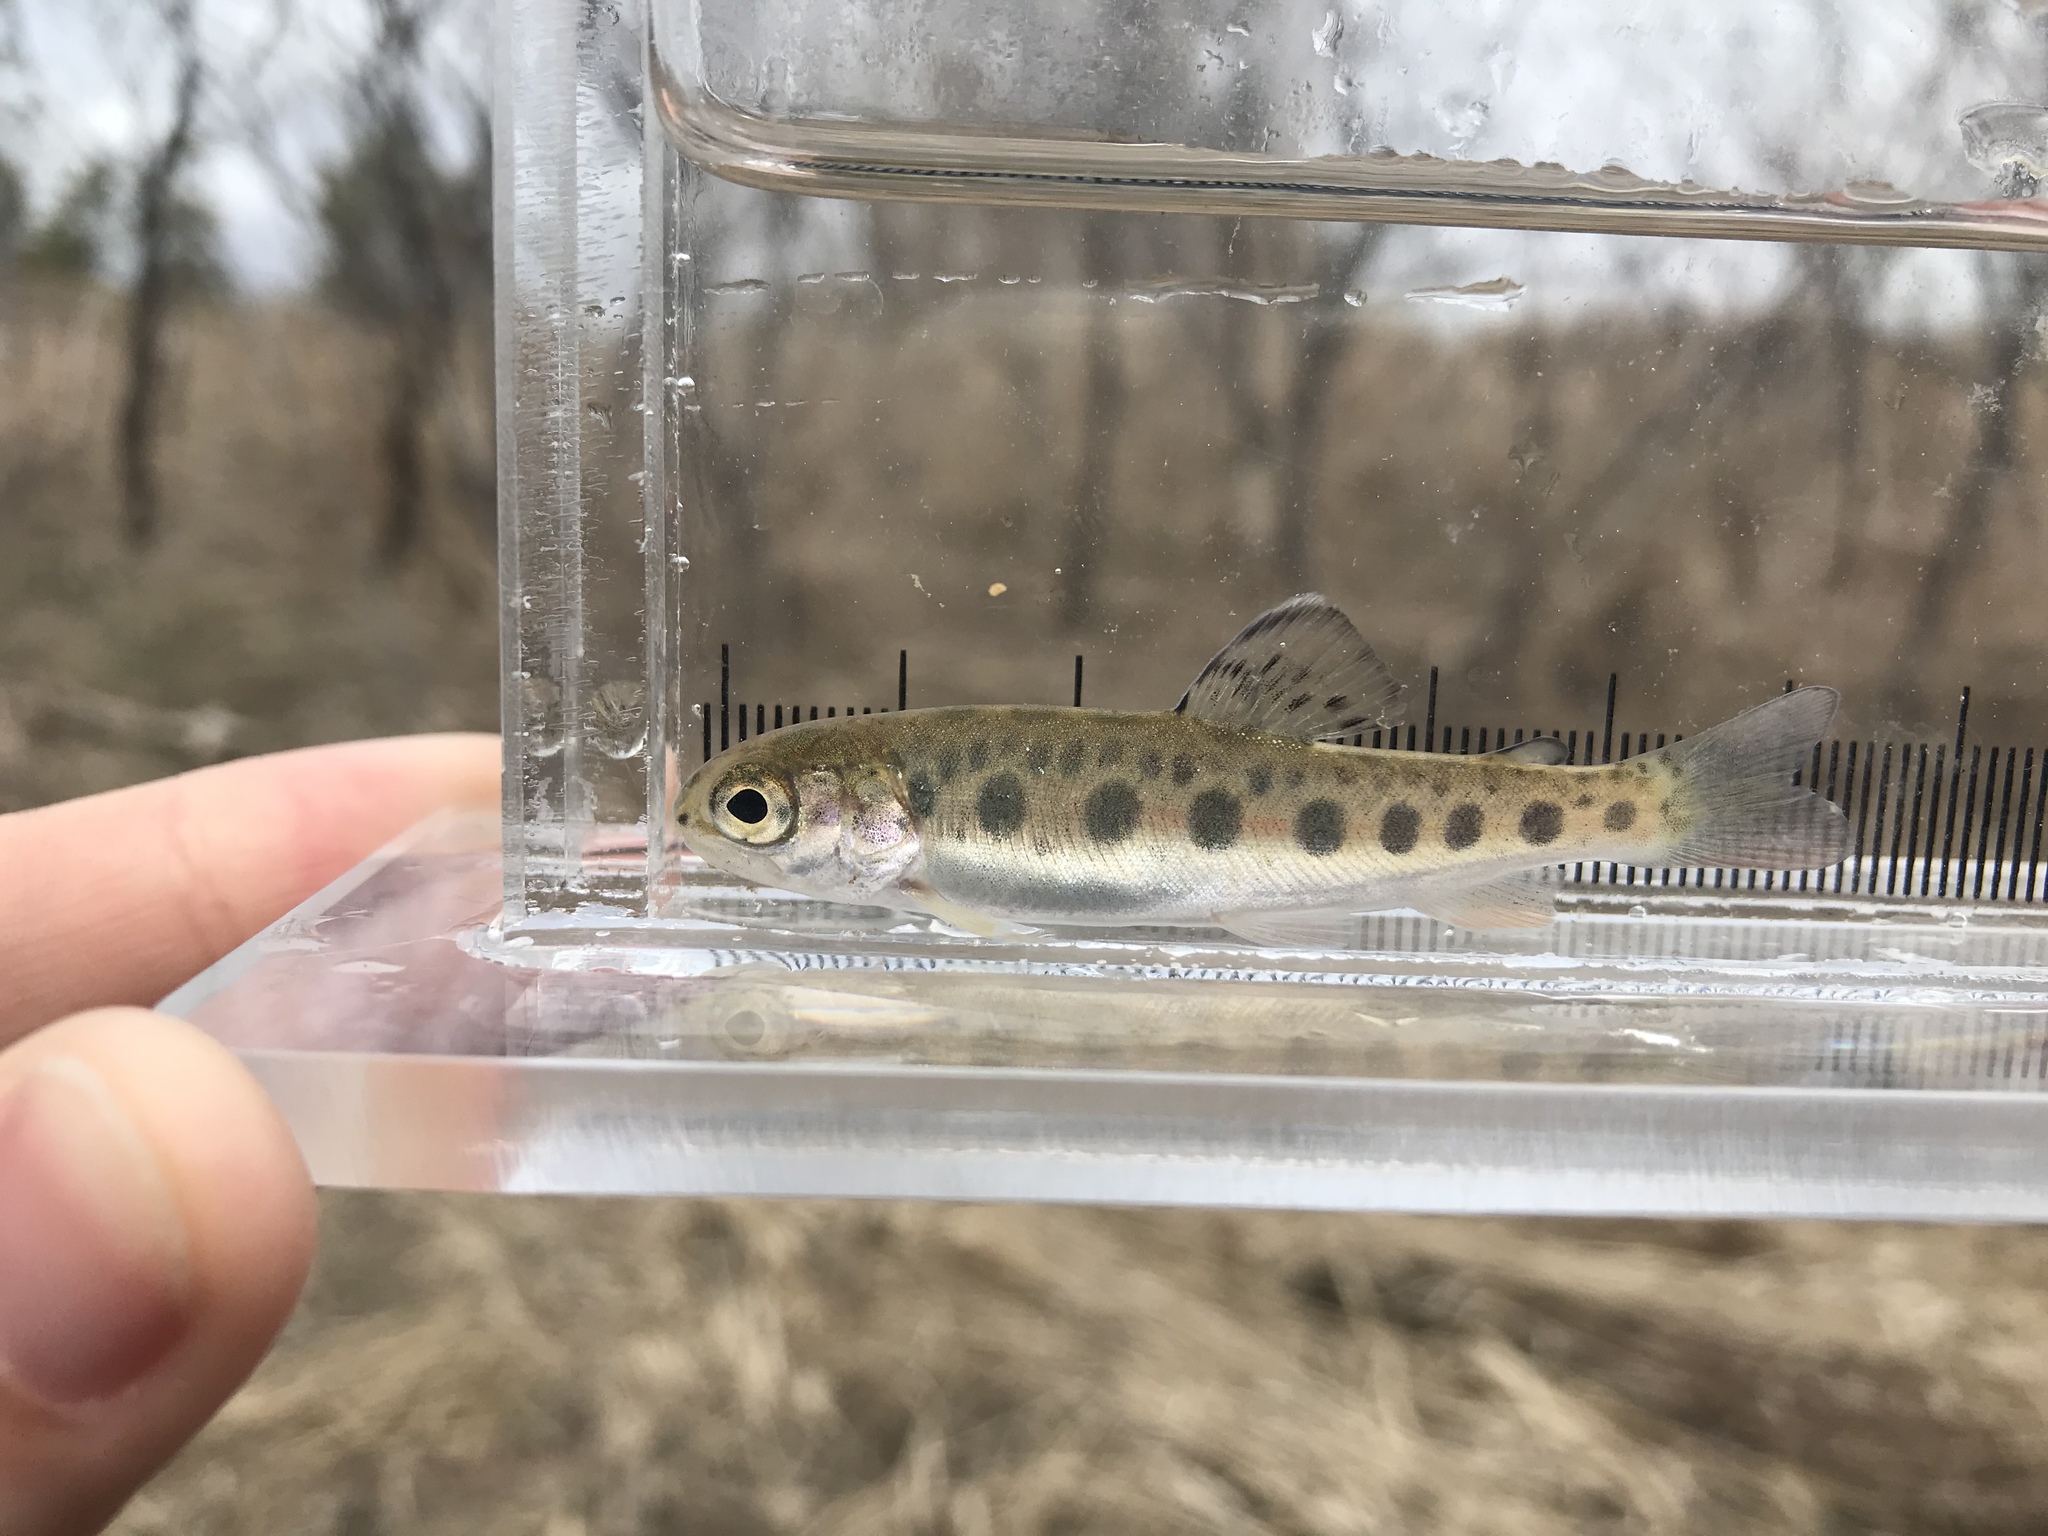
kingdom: Animalia
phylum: Chordata
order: Salmoniformes
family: Salmonidae
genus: Oncorhynchus
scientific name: Oncorhynchus mykiss
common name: Rainbow trout
